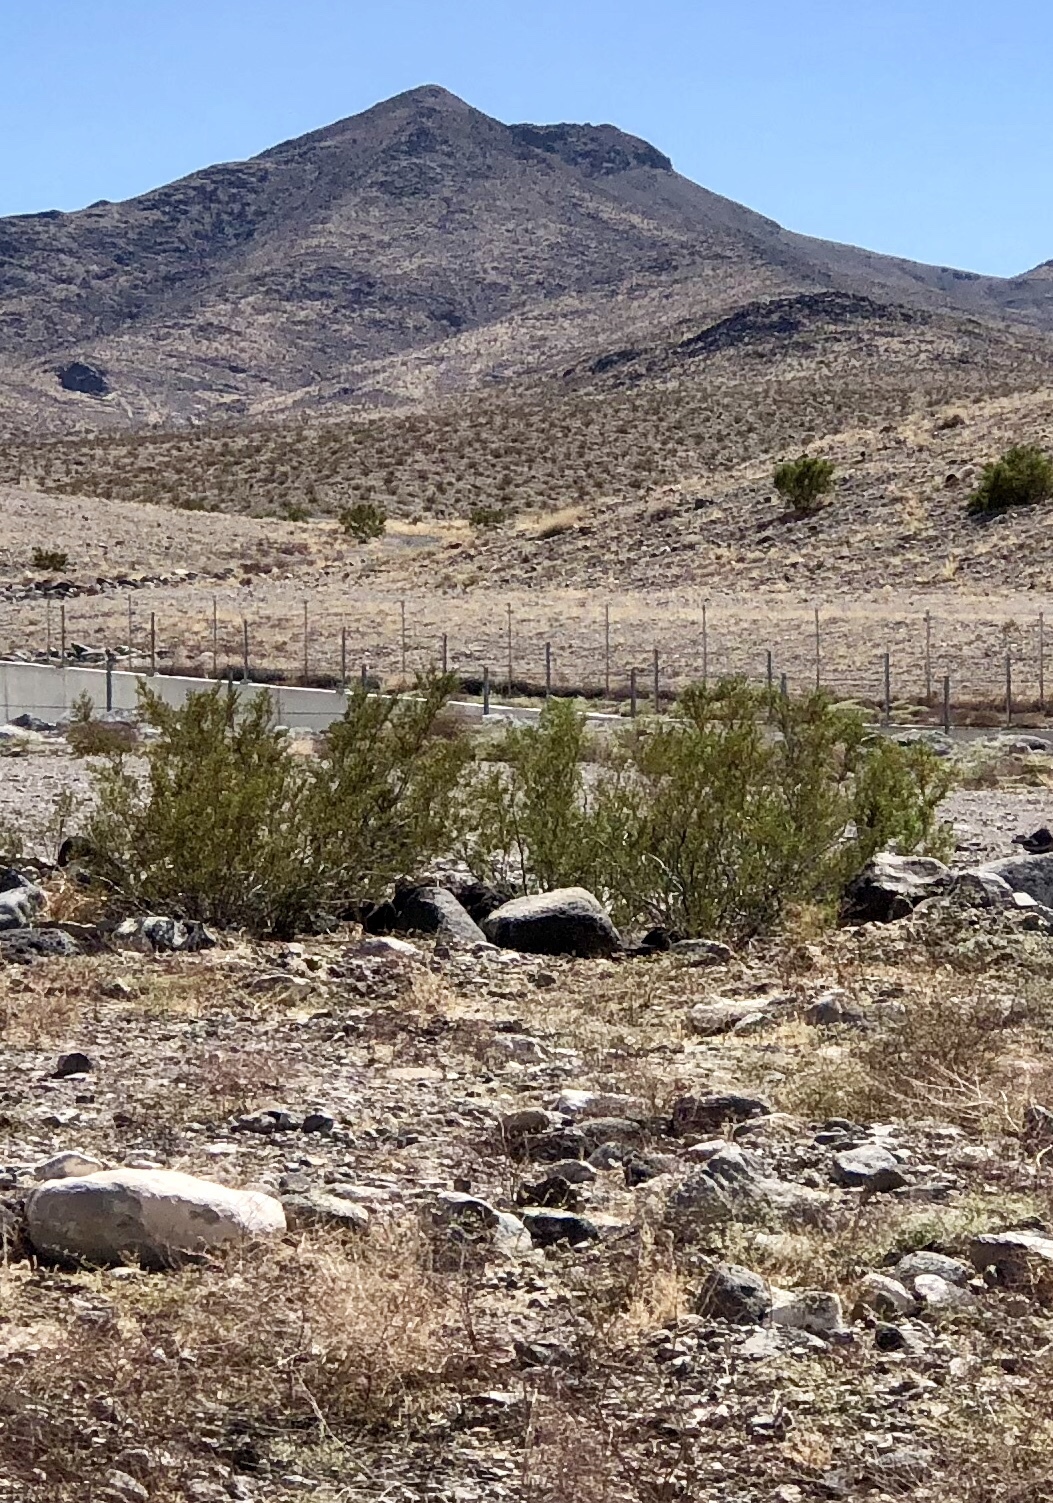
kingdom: Plantae
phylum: Tracheophyta
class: Magnoliopsida
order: Zygophyllales
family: Zygophyllaceae
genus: Larrea
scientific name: Larrea tridentata
